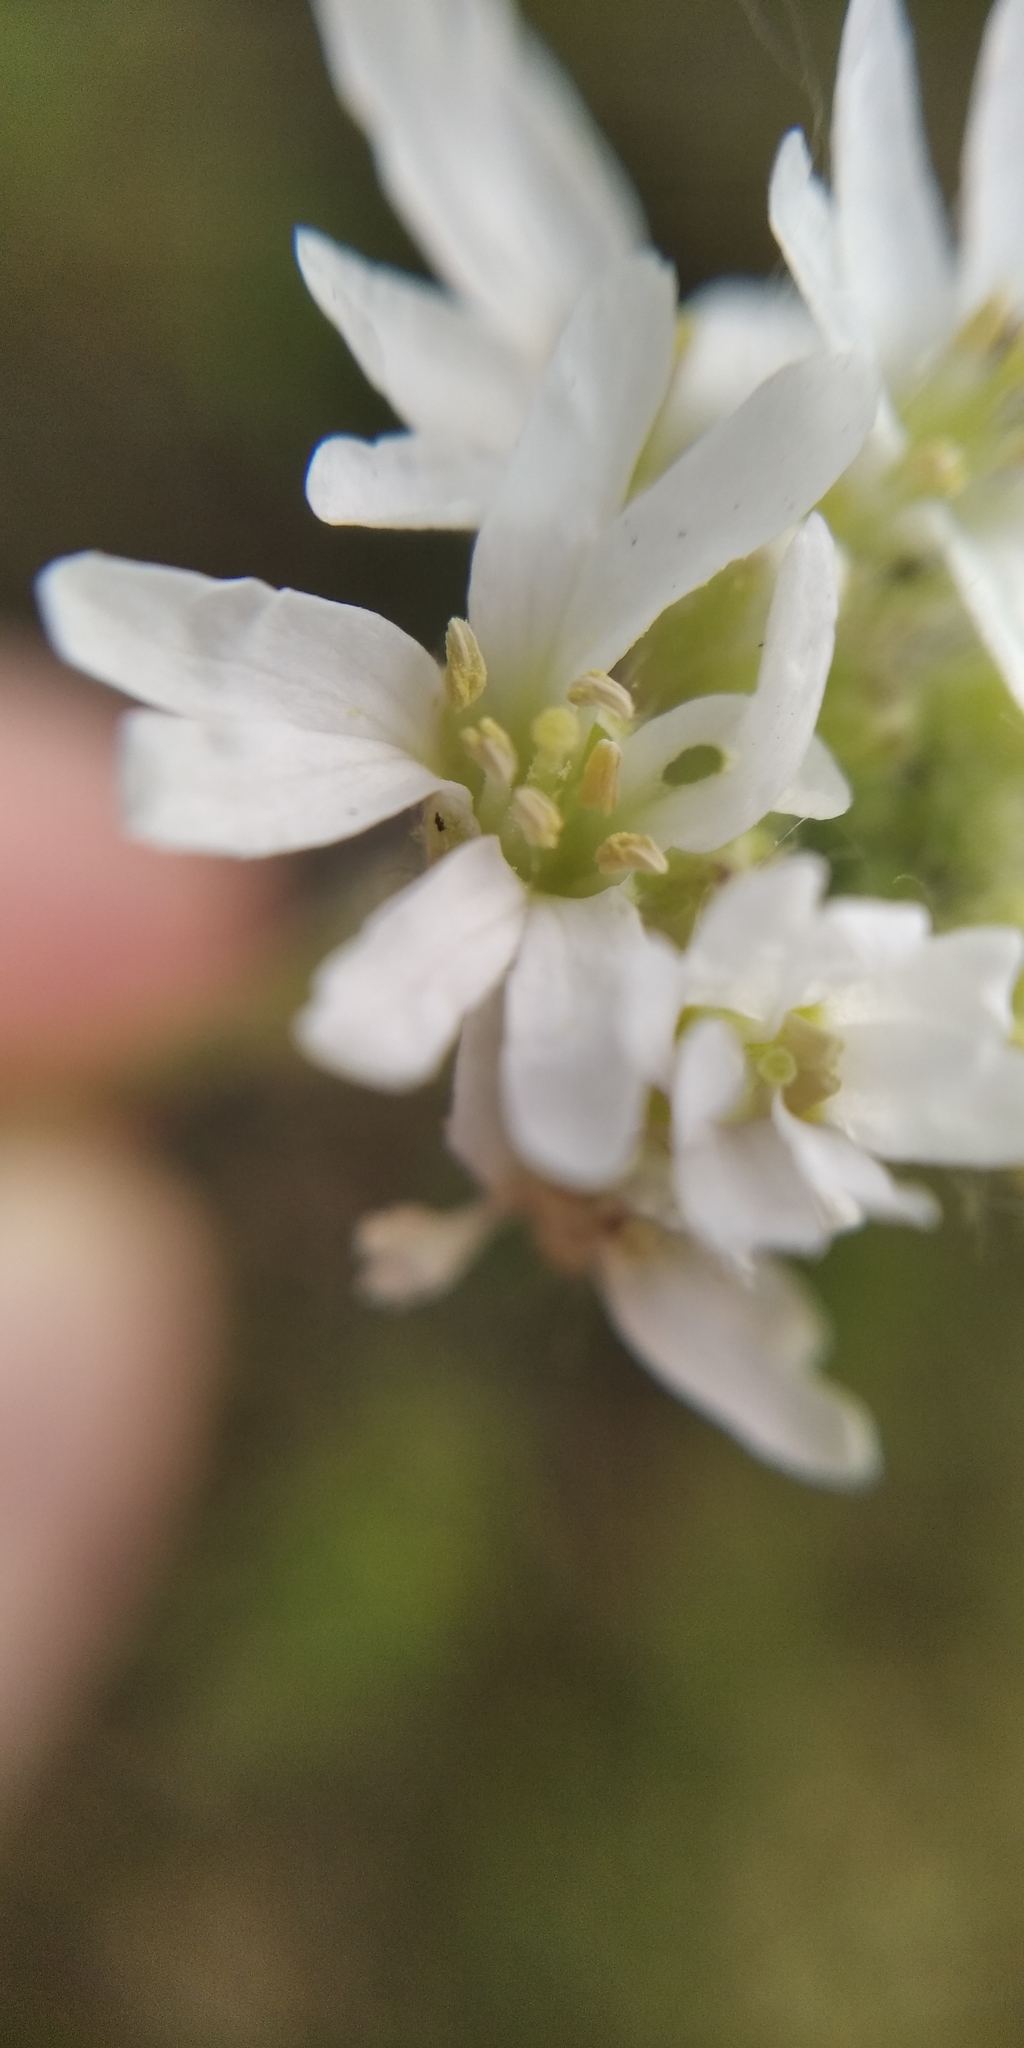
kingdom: Plantae
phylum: Tracheophyta
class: Magnoliopsida
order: Brassicales
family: Brassicaceae
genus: Berteroa
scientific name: Berteroa incana
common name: Hoary alison
